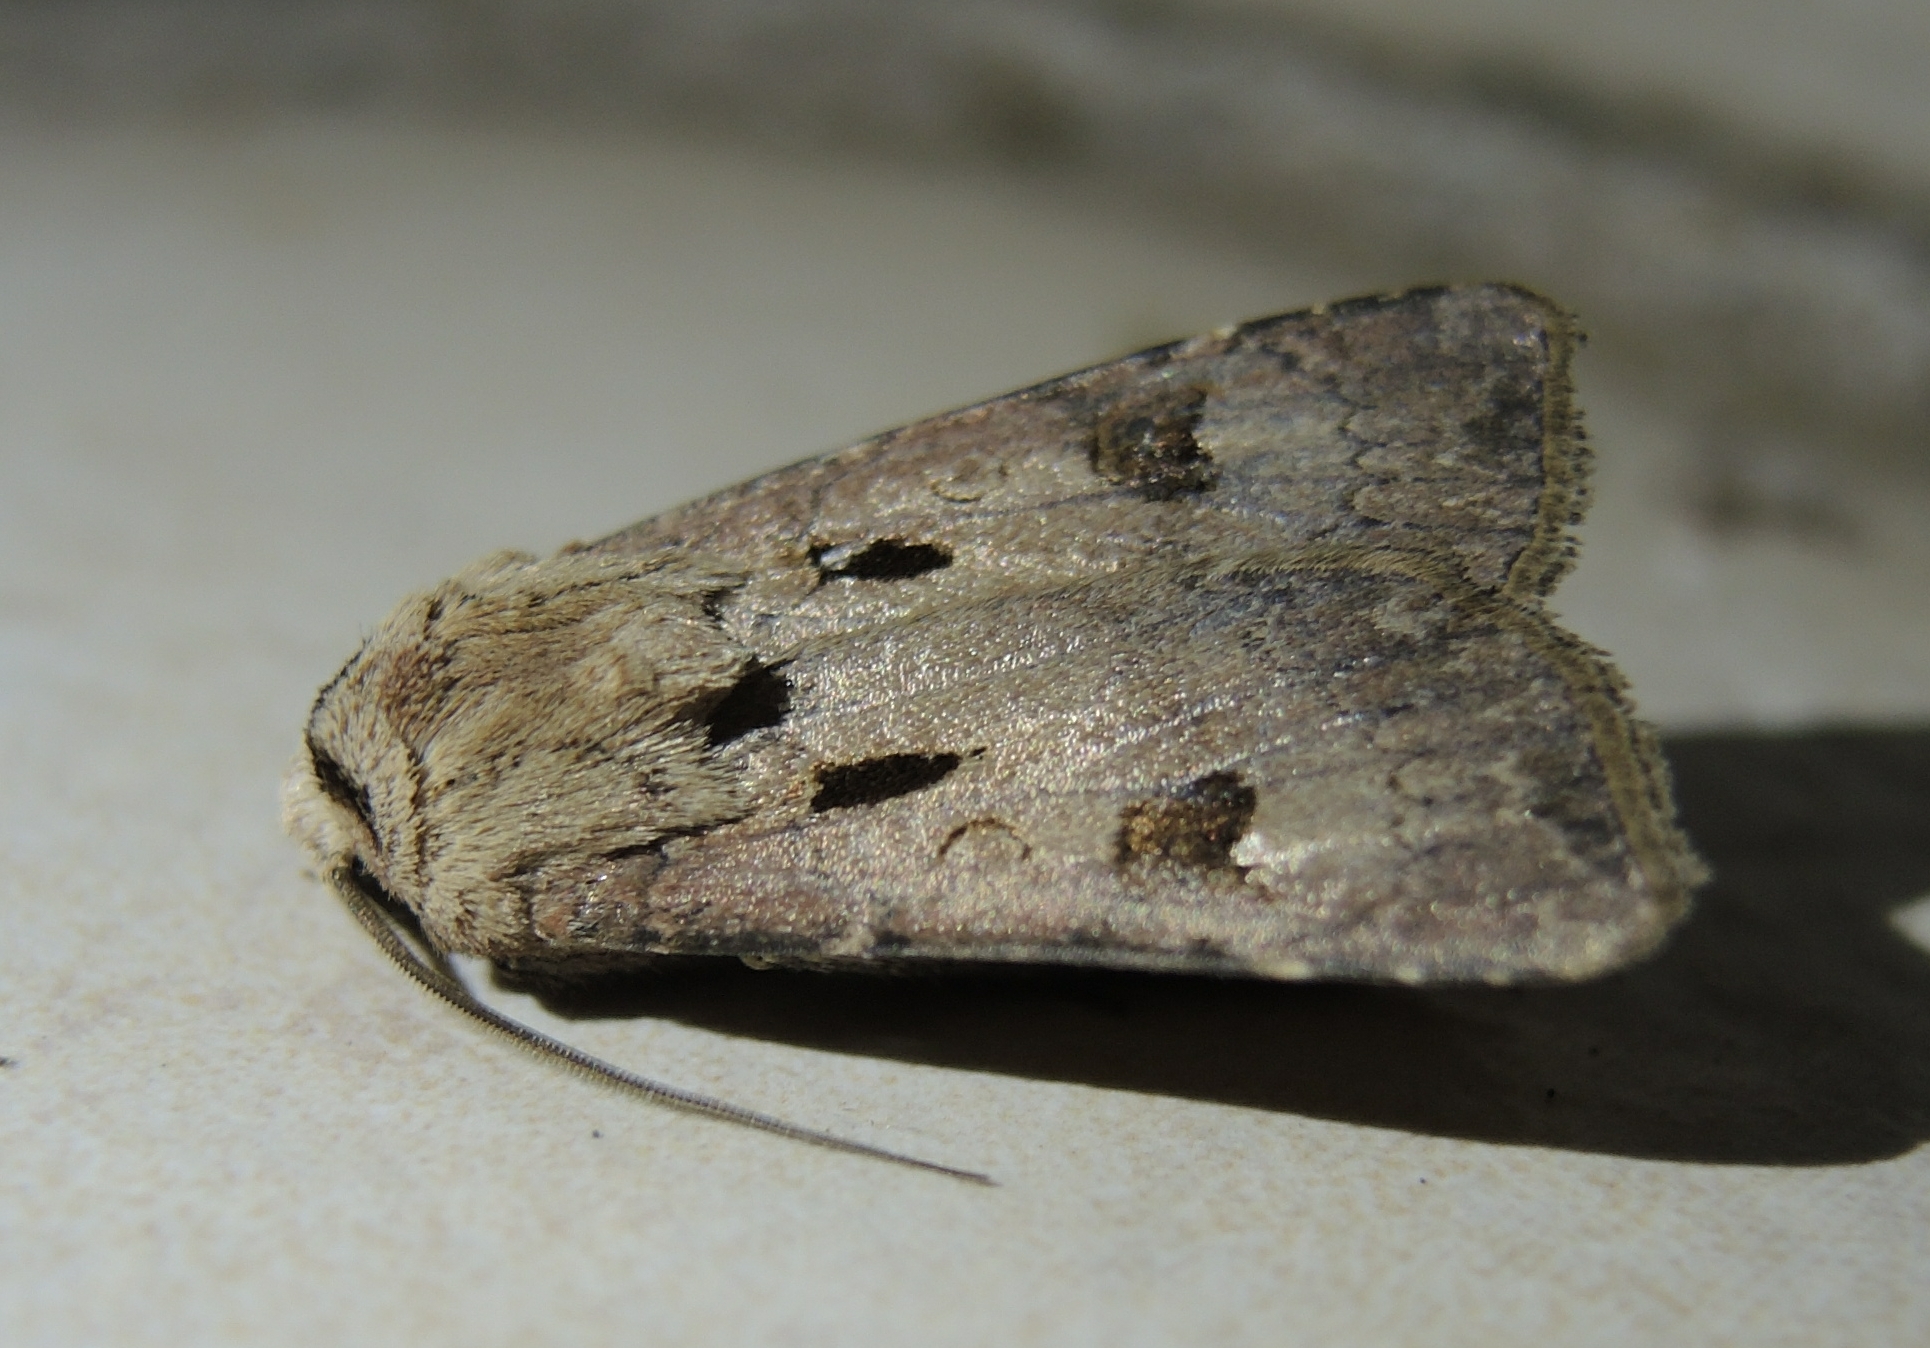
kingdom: Animalia
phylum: Arthropoda
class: Insecta
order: Lepidoptera
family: Noctuidae
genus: Agrotis
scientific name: Agrotis exclamationis
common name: Heart and dart
